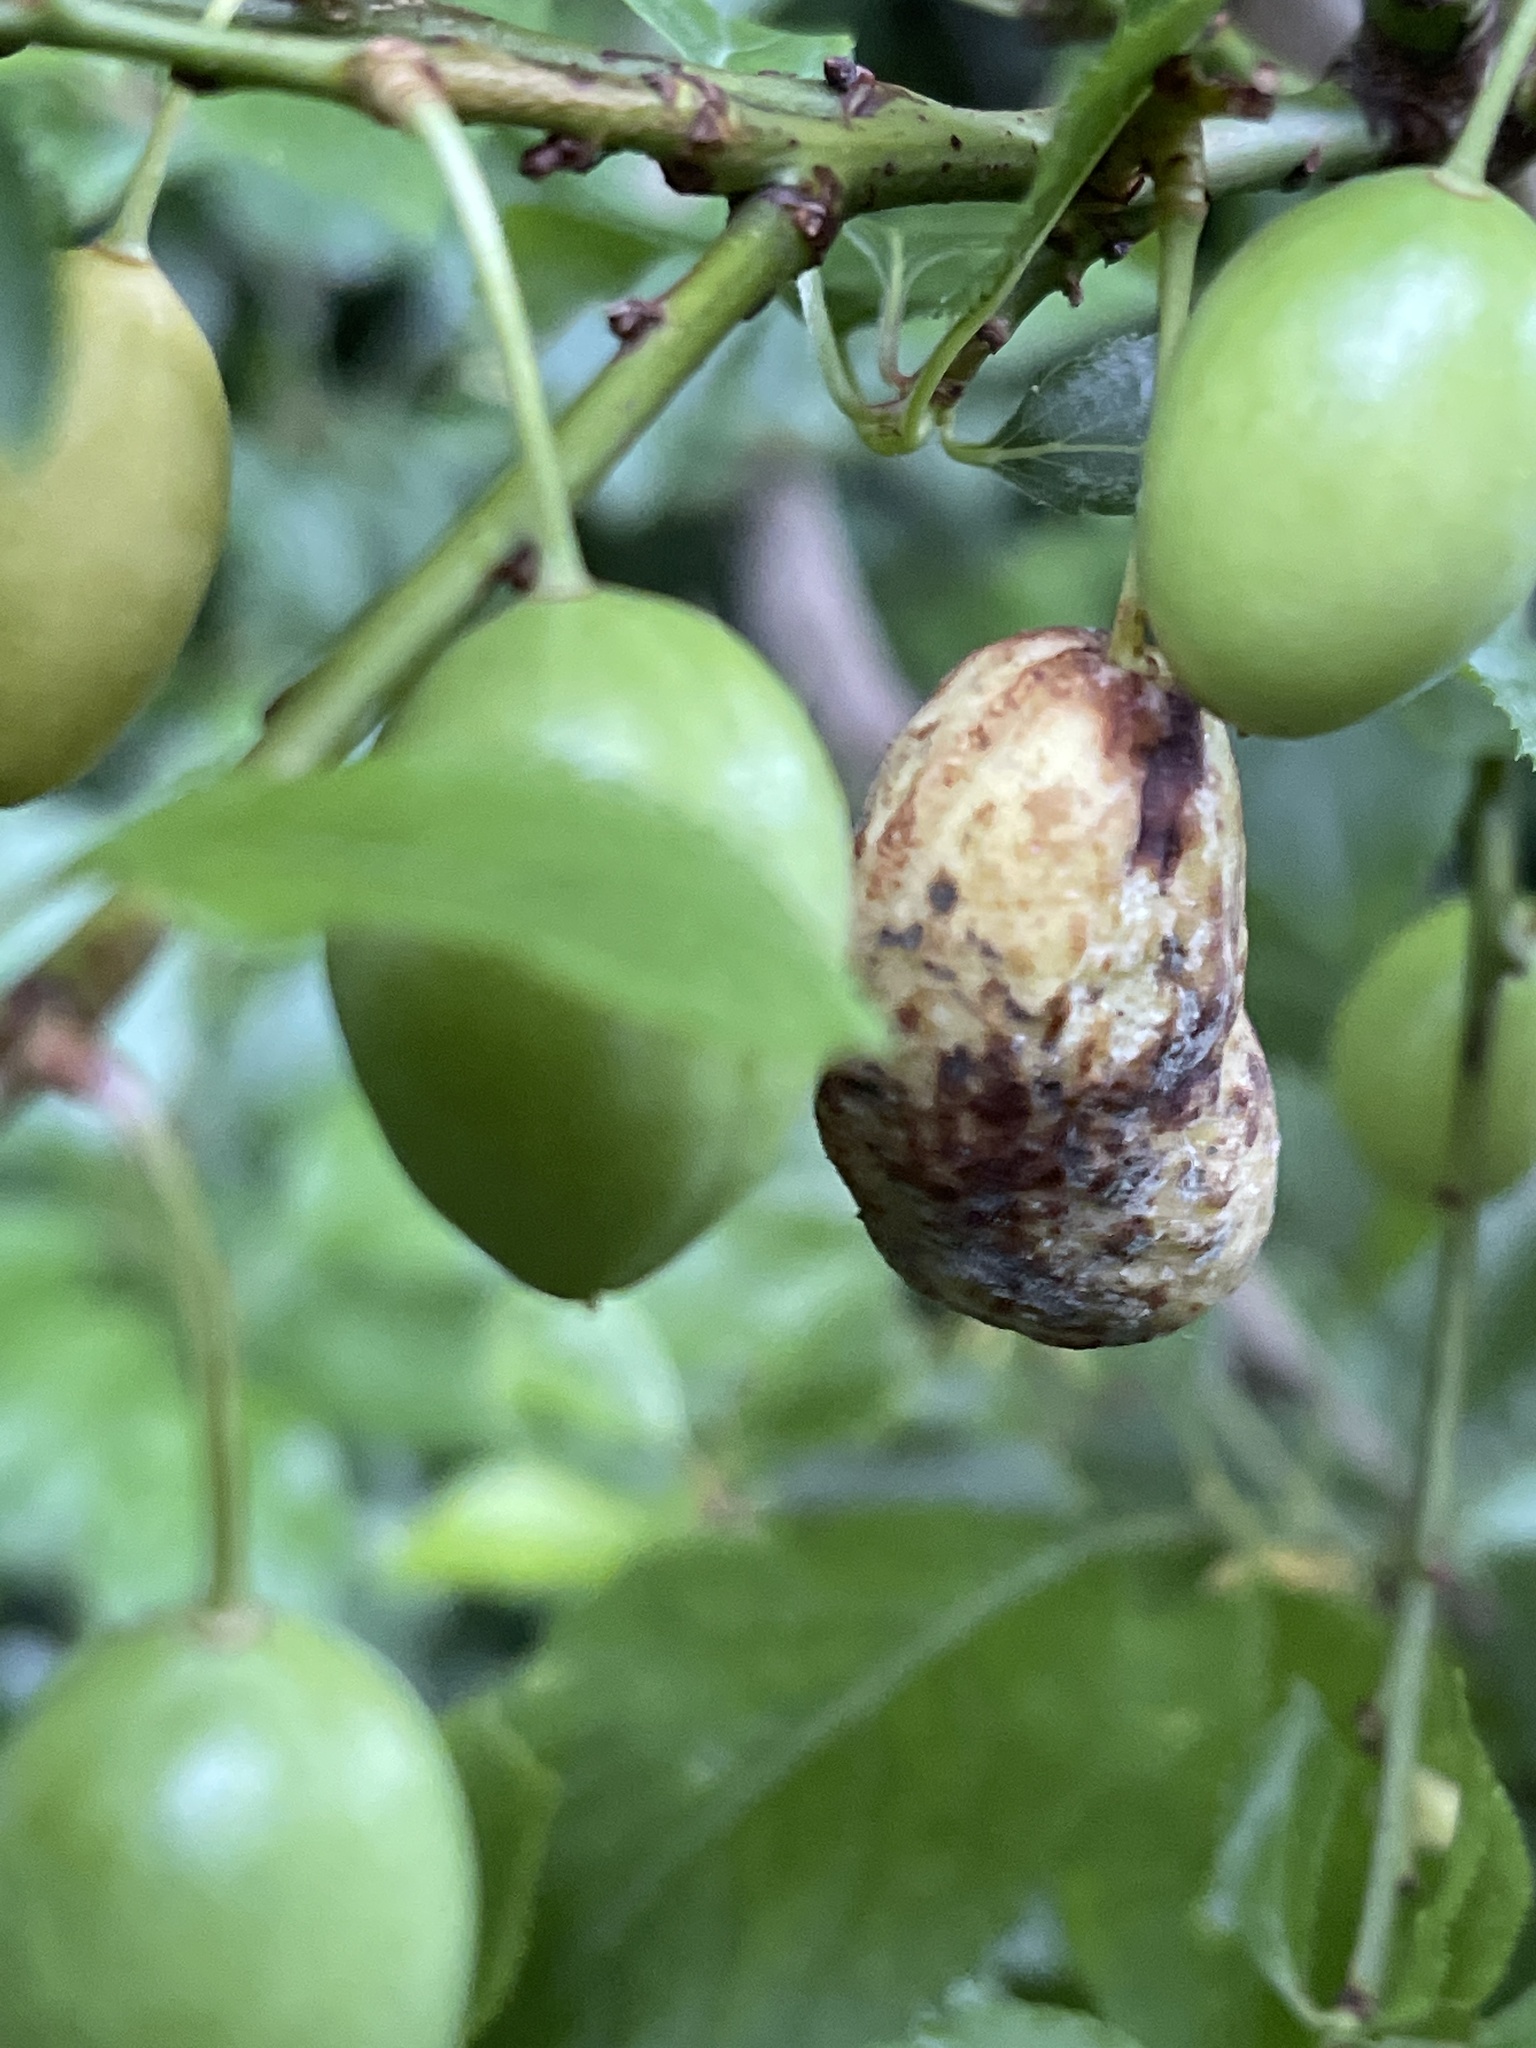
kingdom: Fungi
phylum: Ascomycota
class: Taphrinomycetes
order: Taphrinales
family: Taphrinaceae
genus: Taphrina
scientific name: Taphrina pruni
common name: Pocket plum
